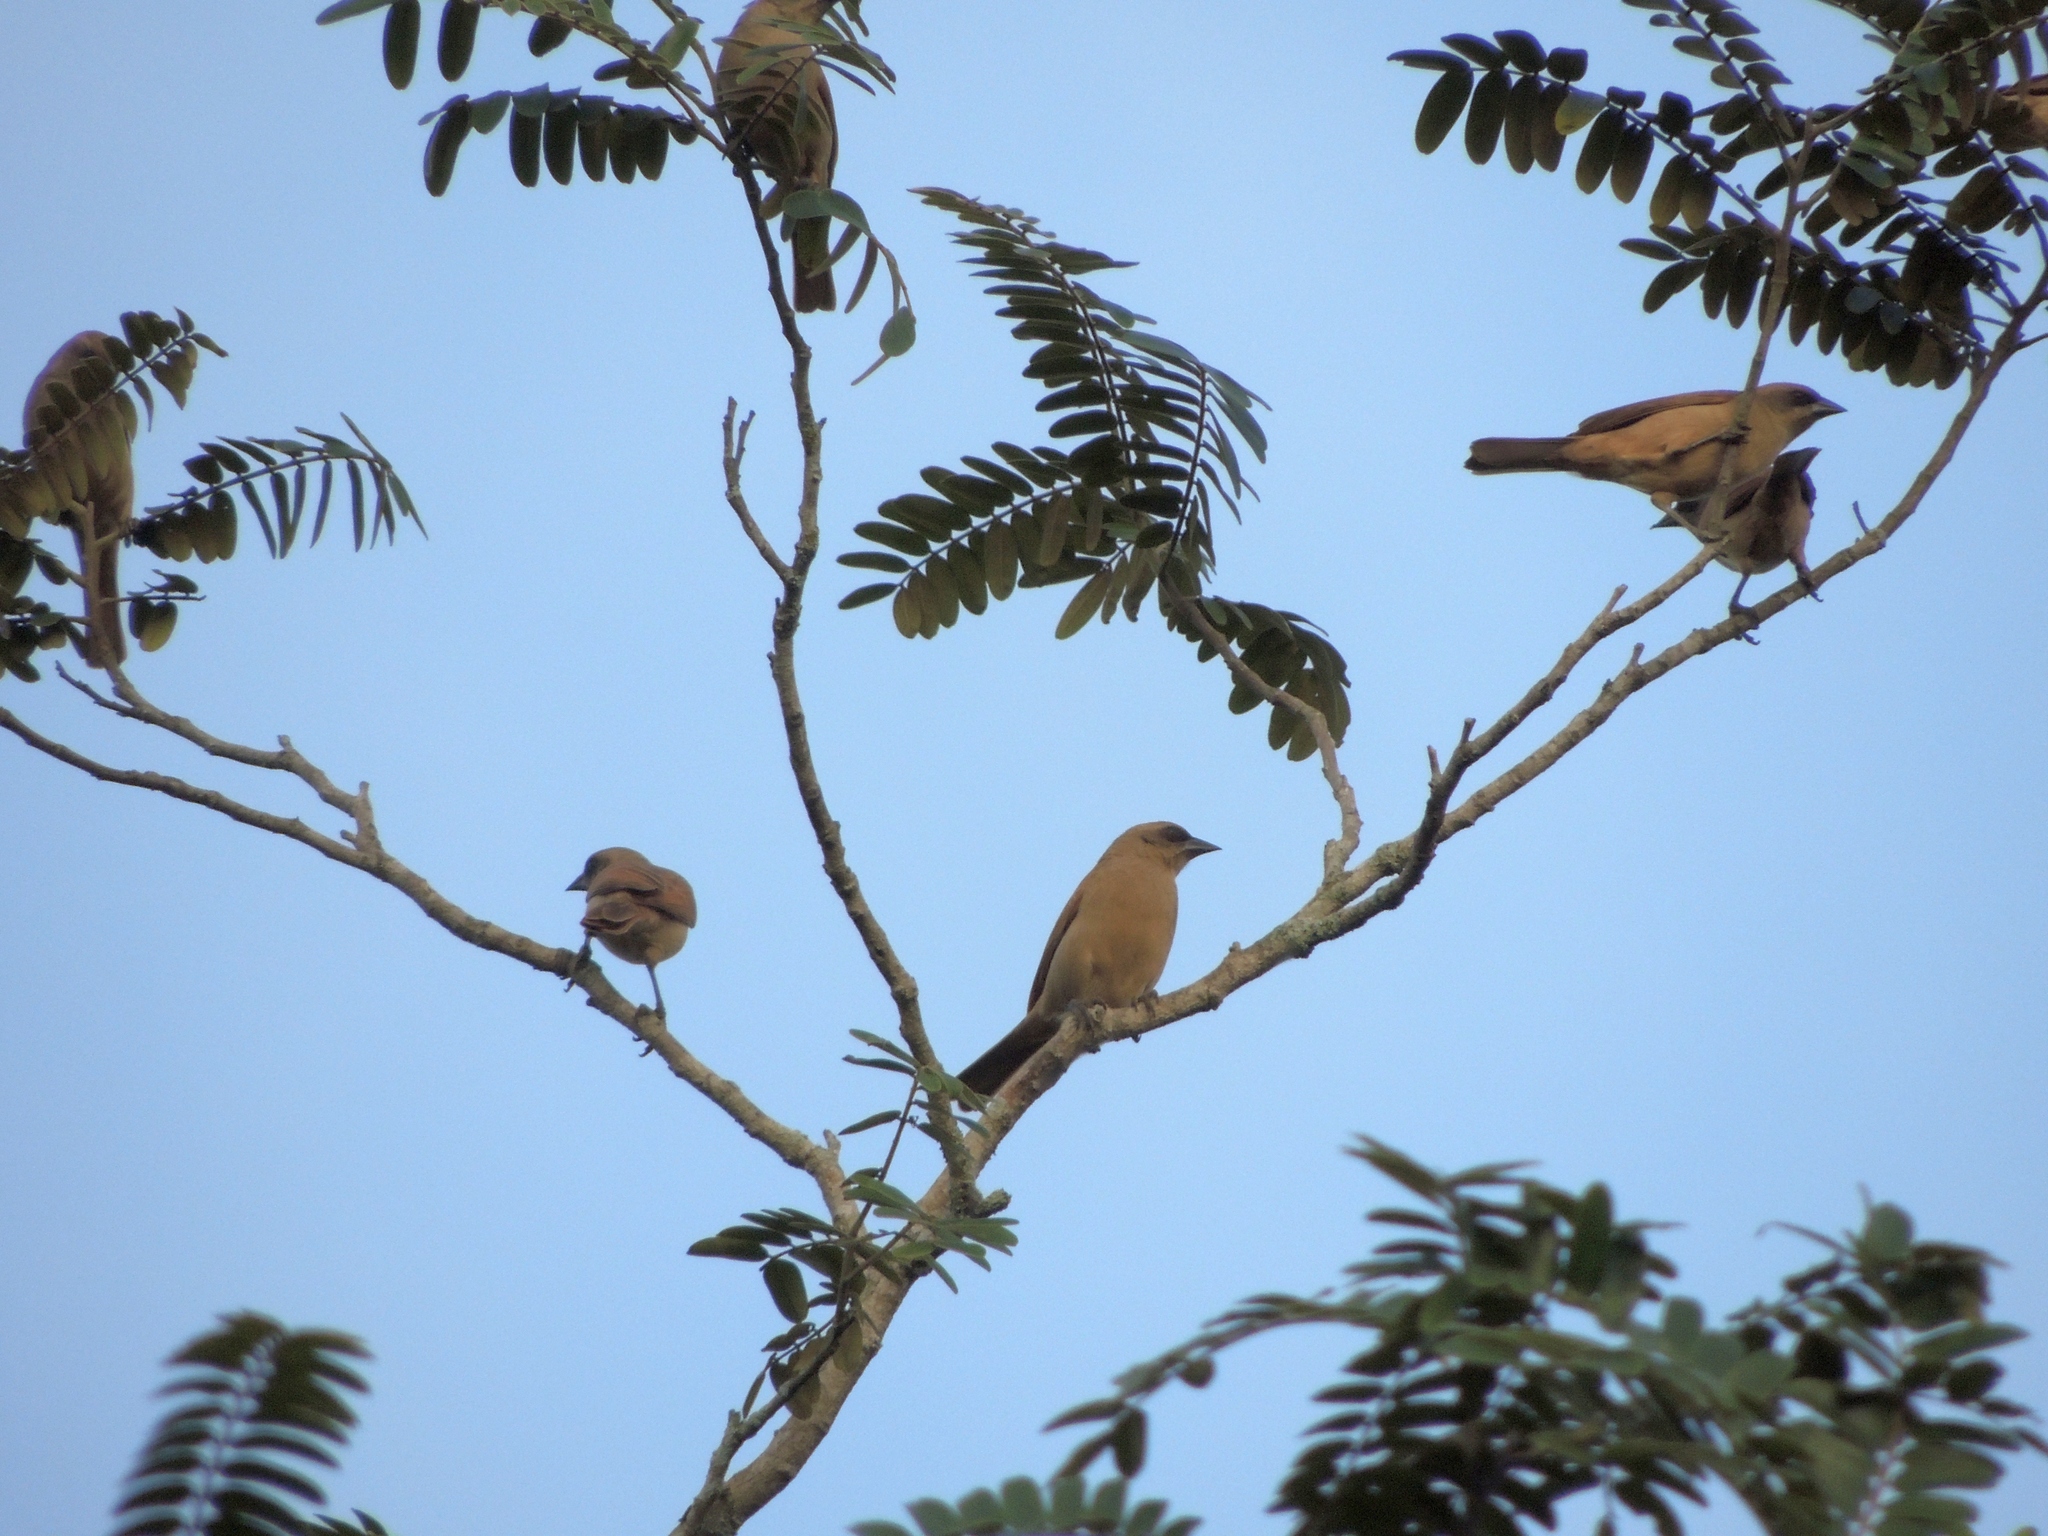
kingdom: Animalia
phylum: Chordata
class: Aves
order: Passeriformes
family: Icteridae
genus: Agelaioides
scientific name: Agelaioides badius
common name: Baywing
